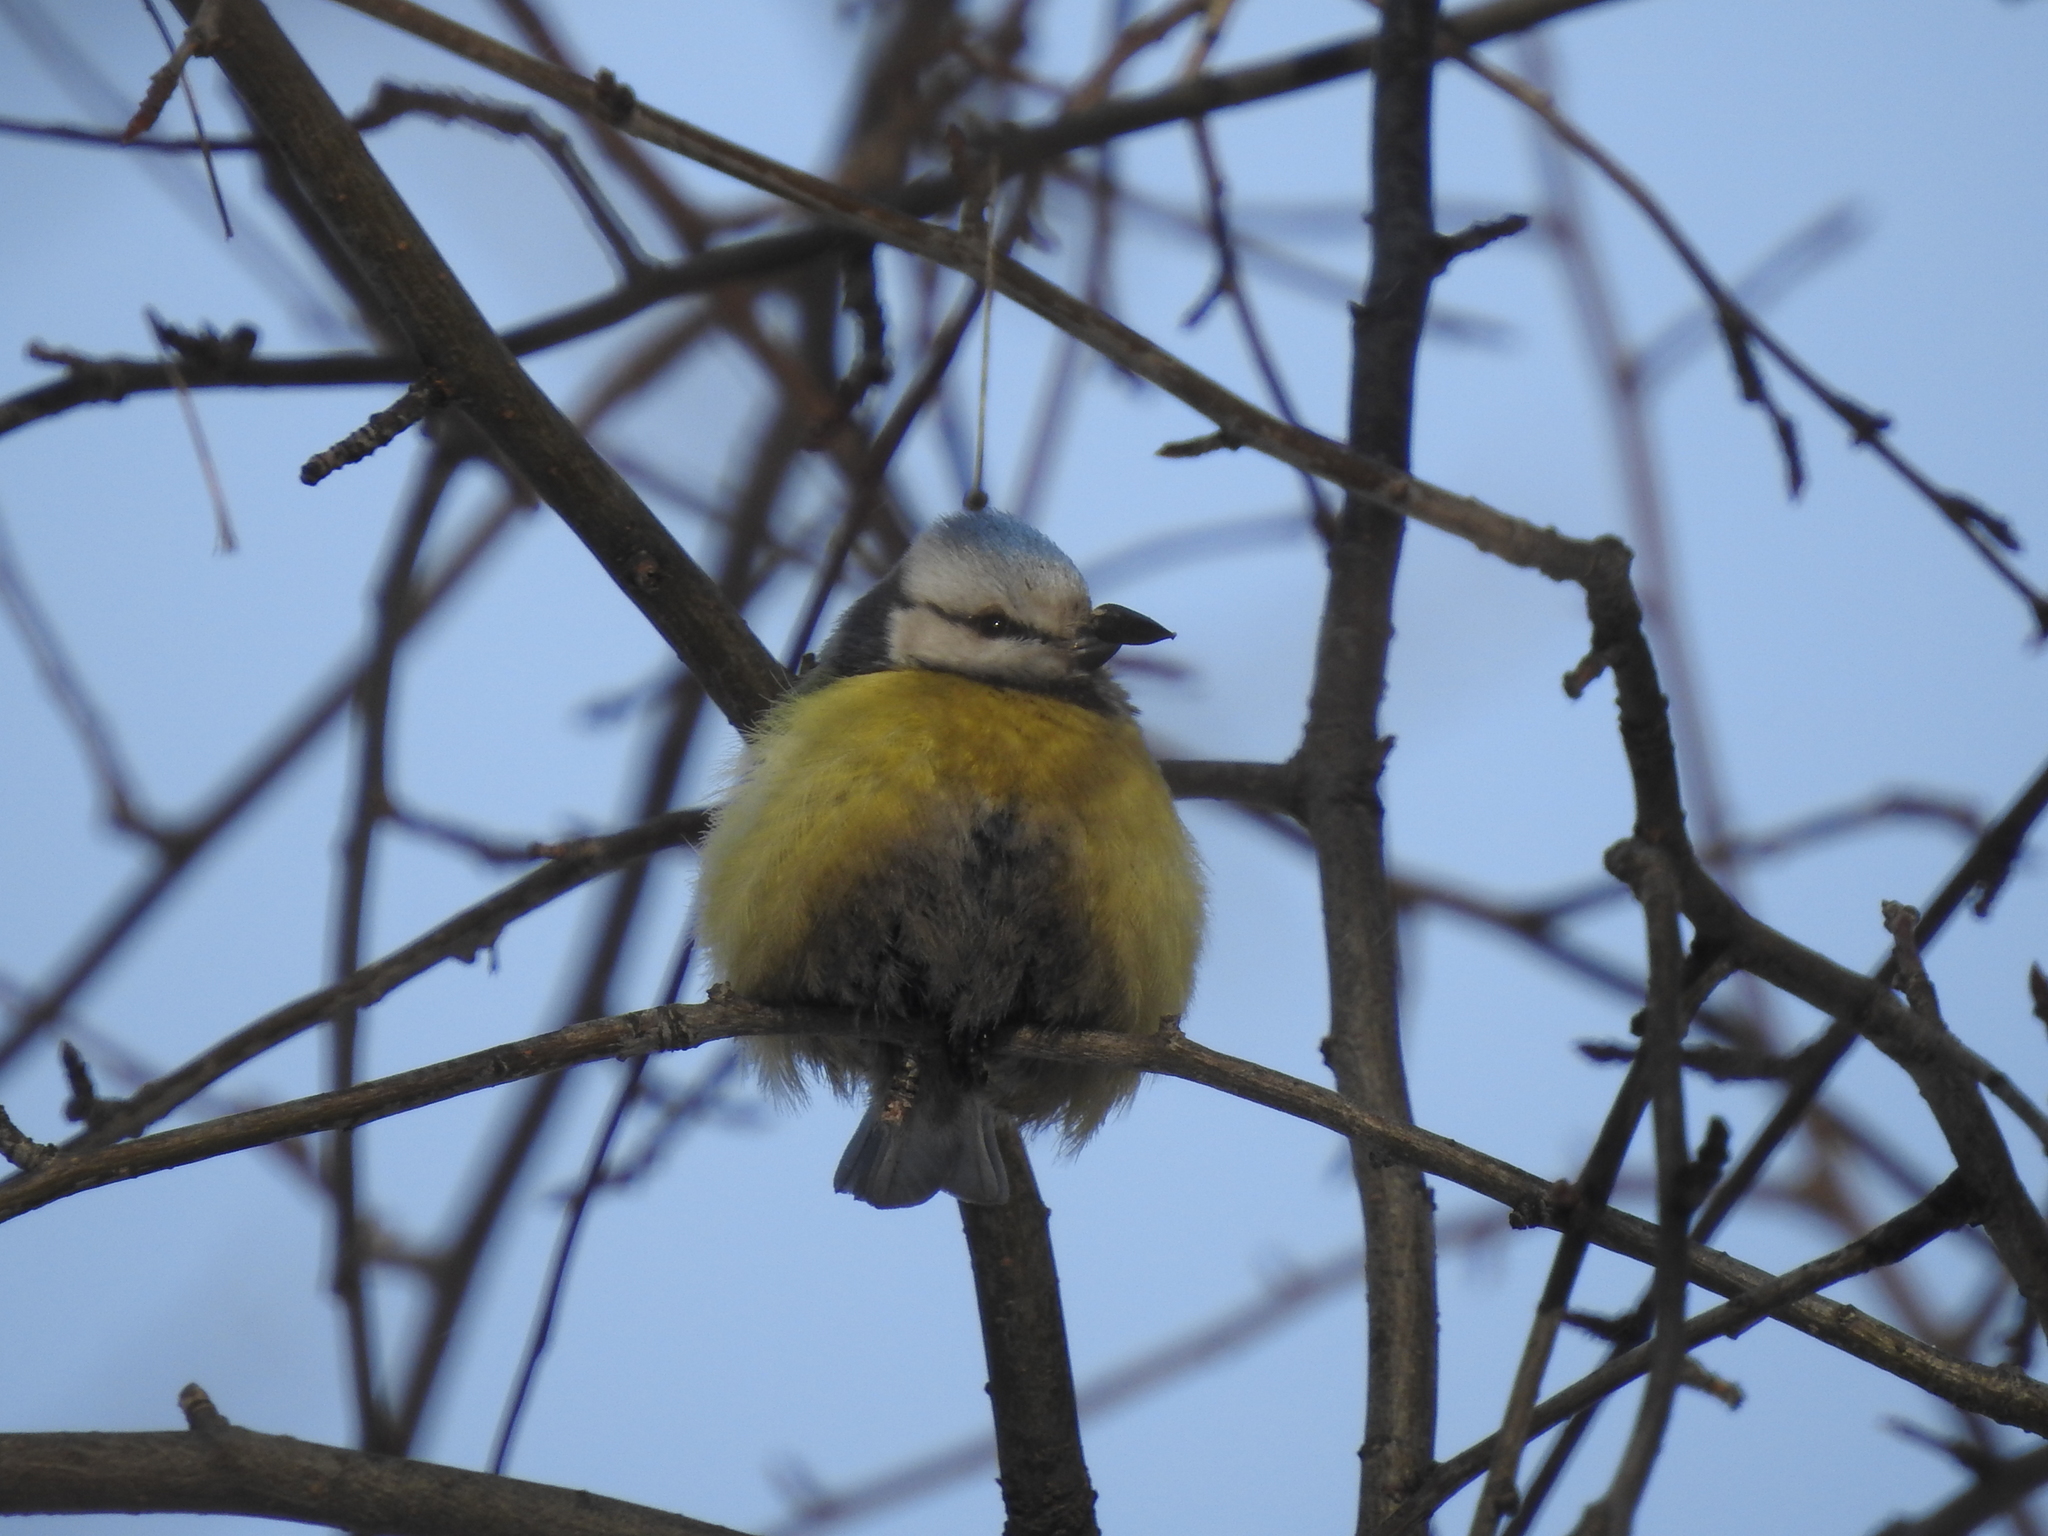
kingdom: Animalia
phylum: Chordata
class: Aves
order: Passeriformes
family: Paridae
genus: Cyanistes
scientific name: Cyanistes caeruleus
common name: Eurasian blue tit
